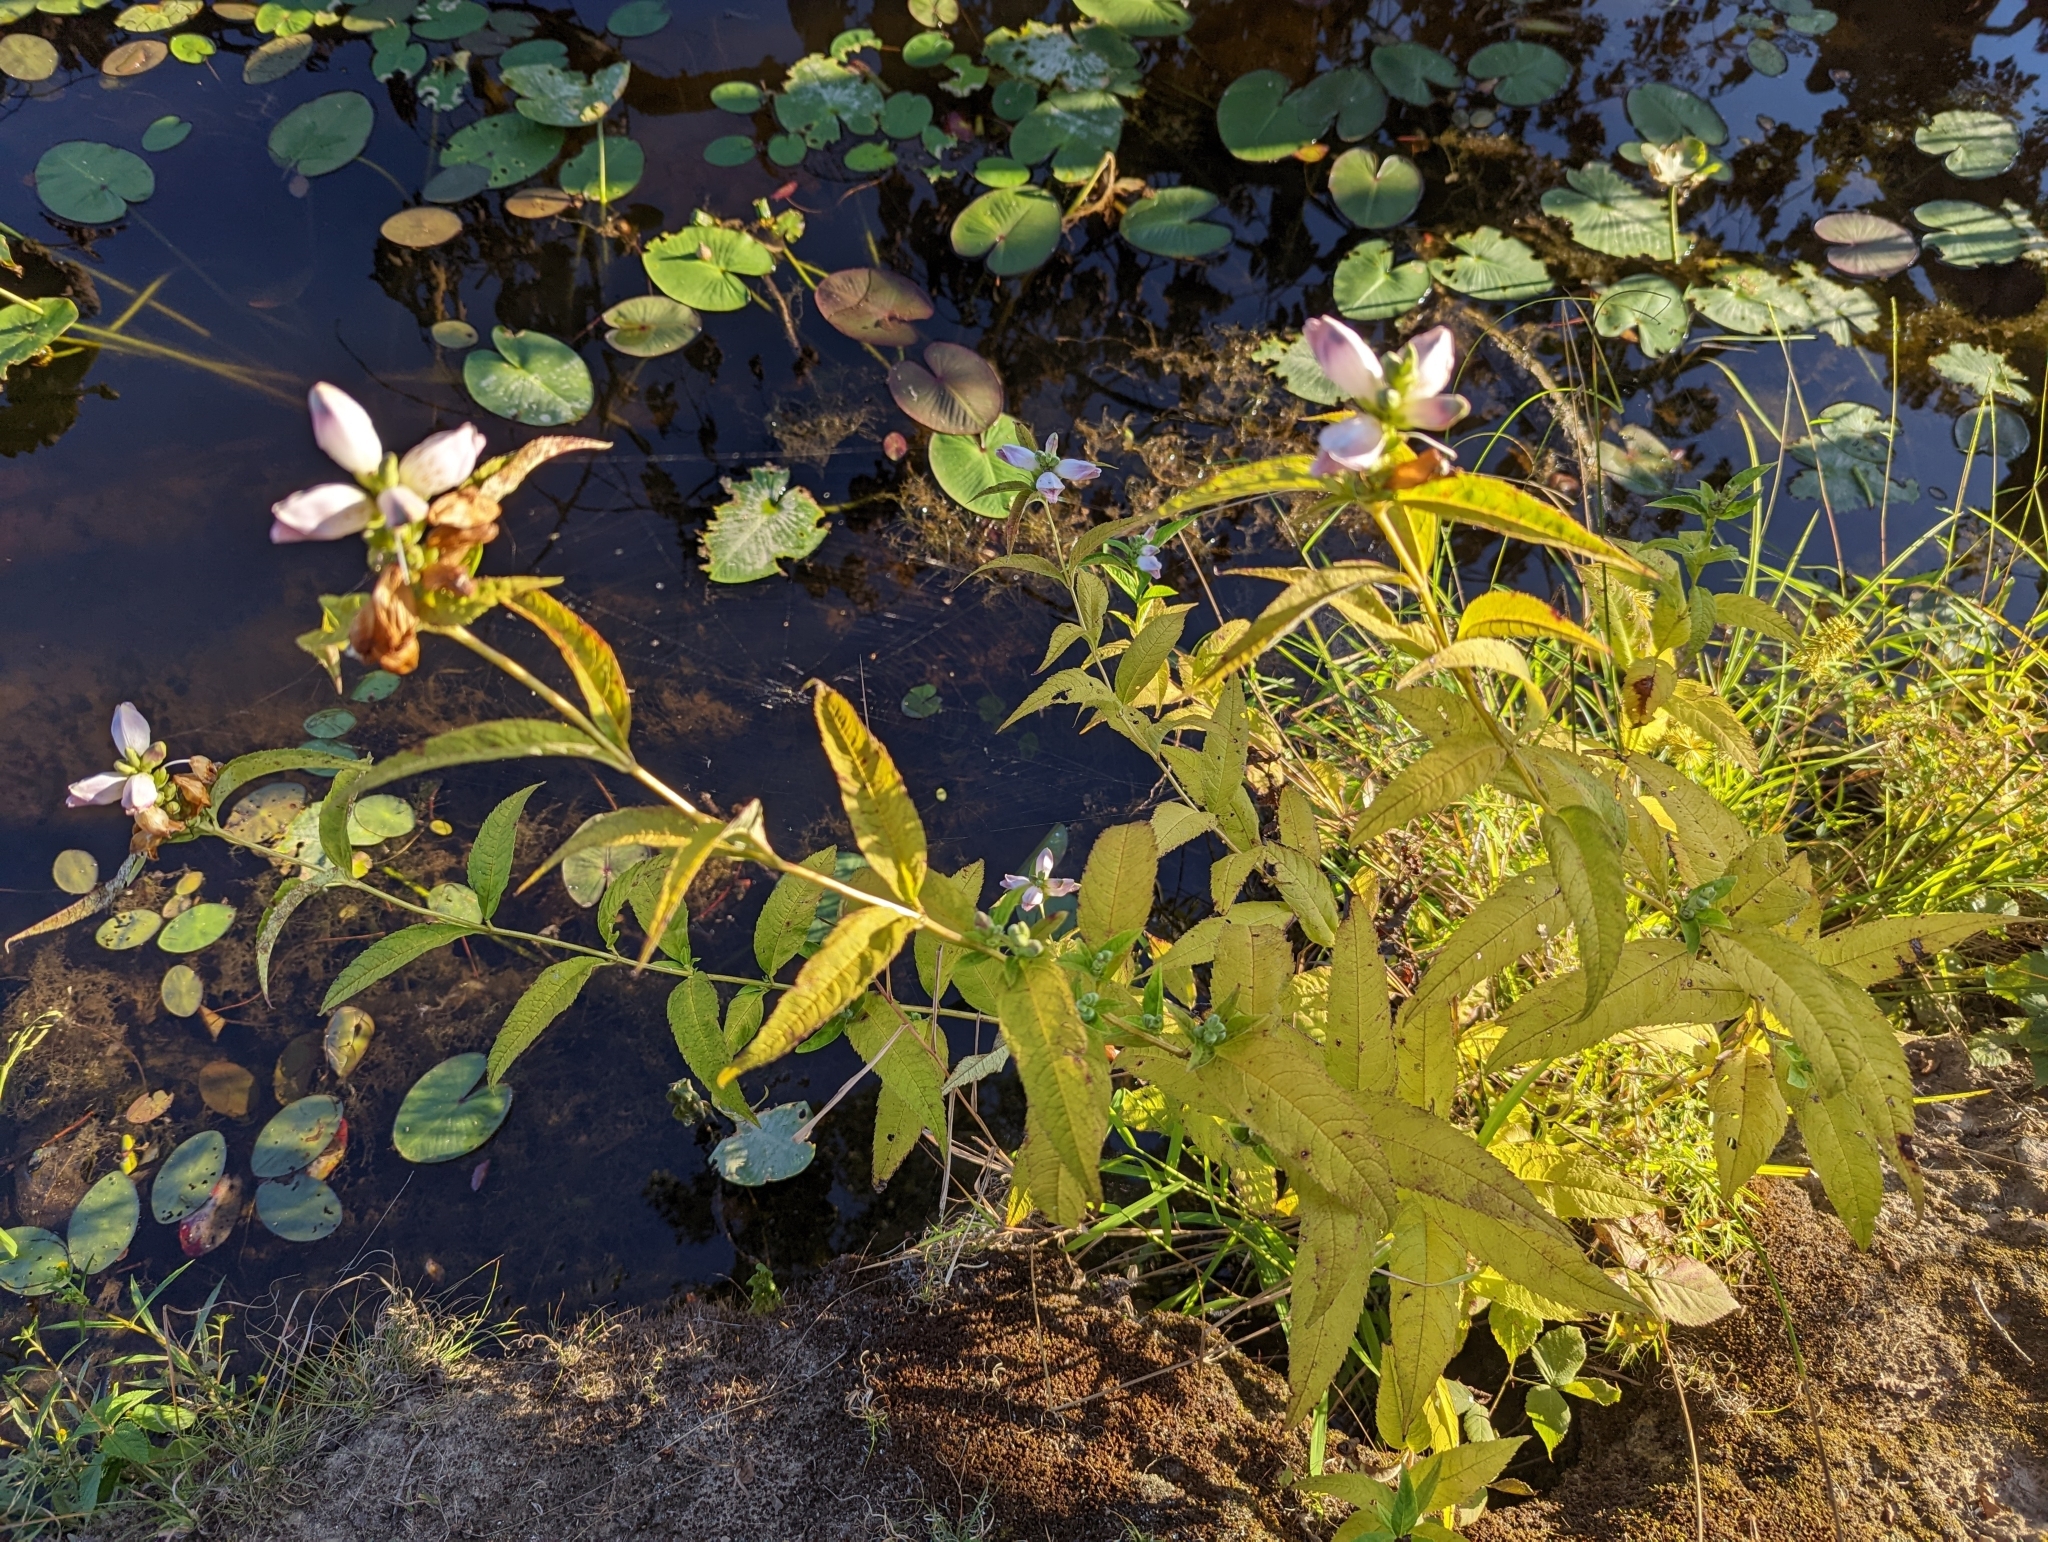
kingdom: Plantae
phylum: Tracheophyta
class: Magnoliopsida
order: Lamiales
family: Plantaginaceae
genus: Chelone
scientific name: Chelone glabra
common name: Snakehead
